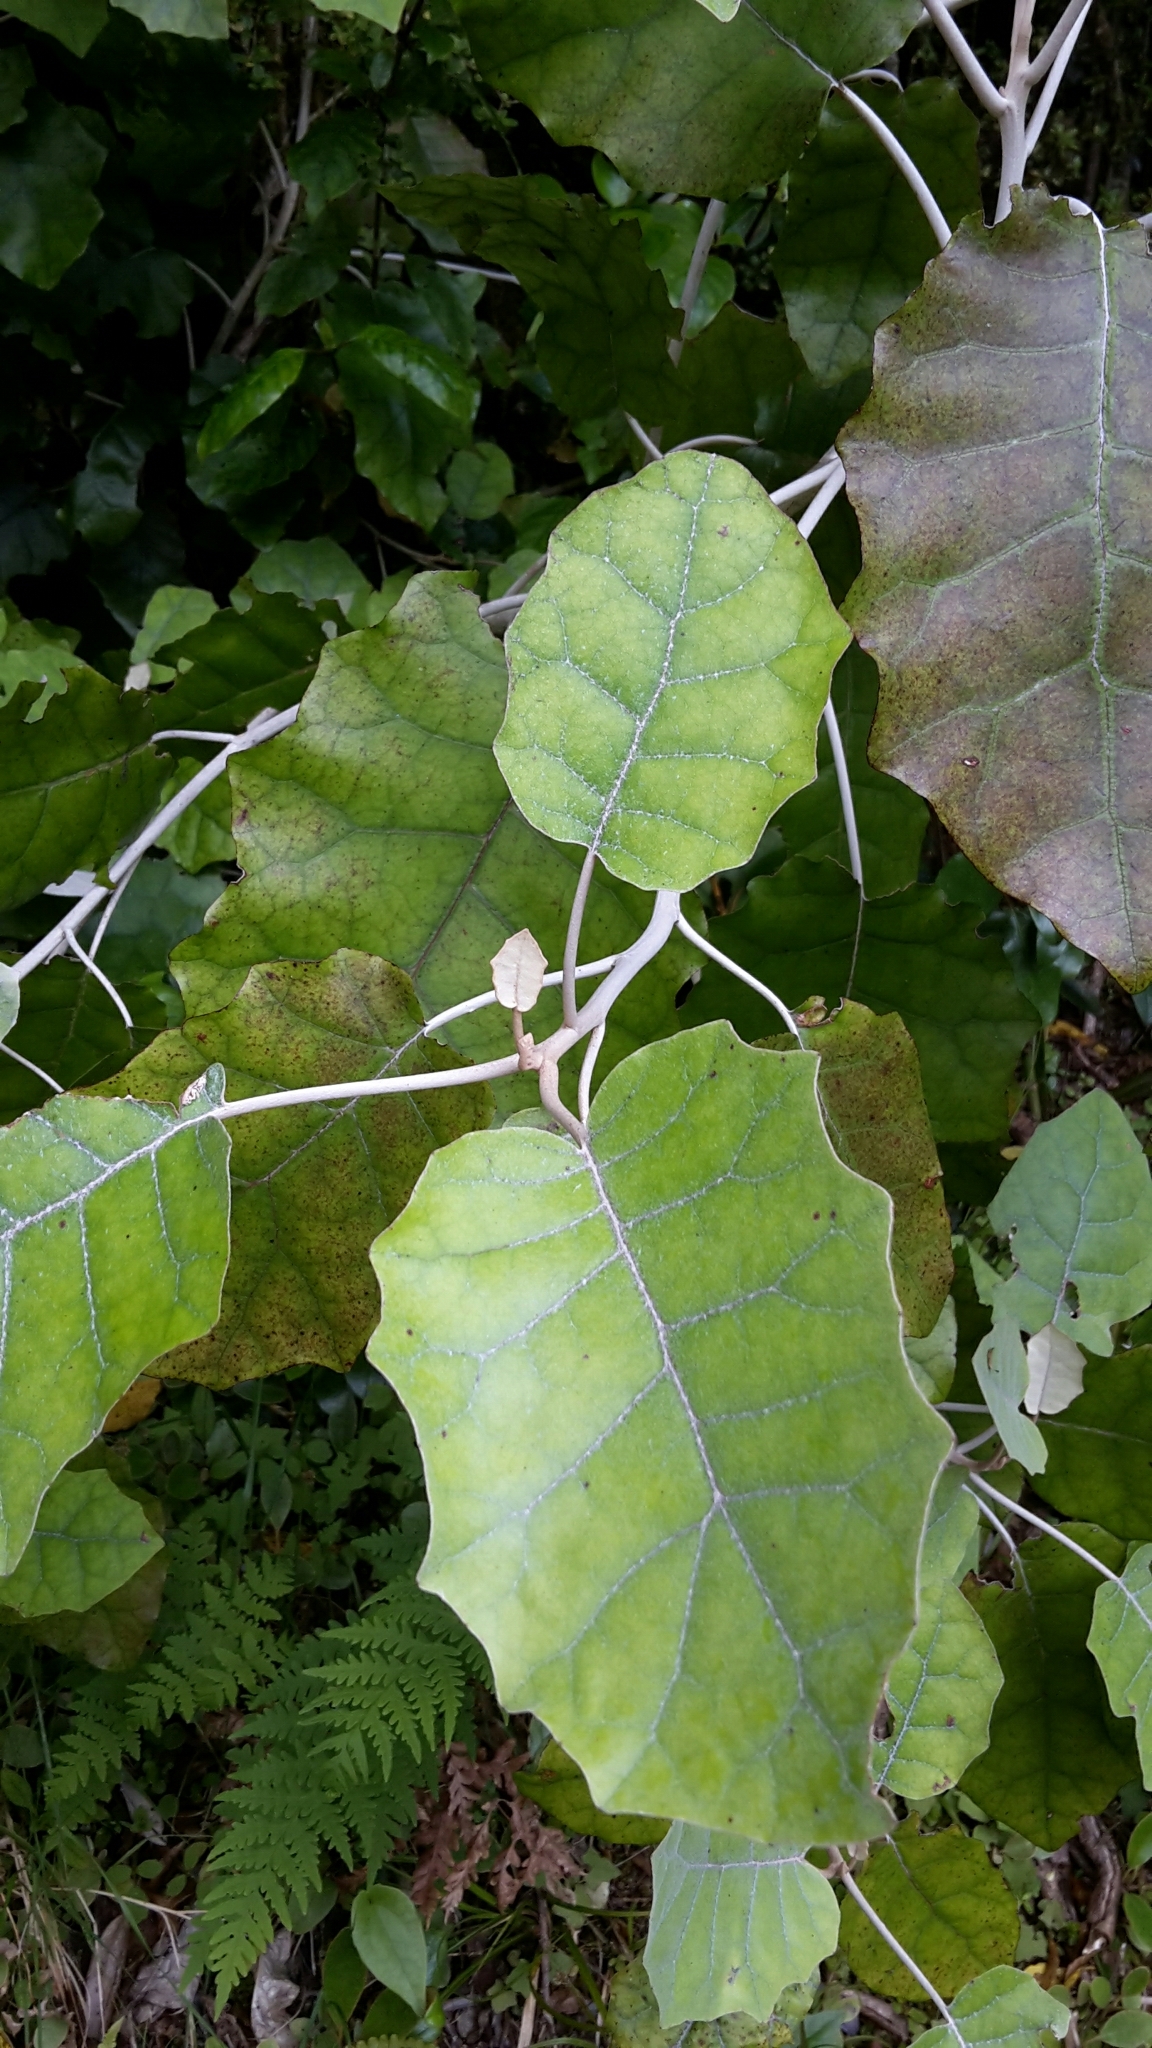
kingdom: Plantae
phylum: Tracheophyta
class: Magnoliopsida
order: Asterales
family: Asteraceae
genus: Brachyglottis
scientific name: Brachyglottis repanda
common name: Hedge ragwort
